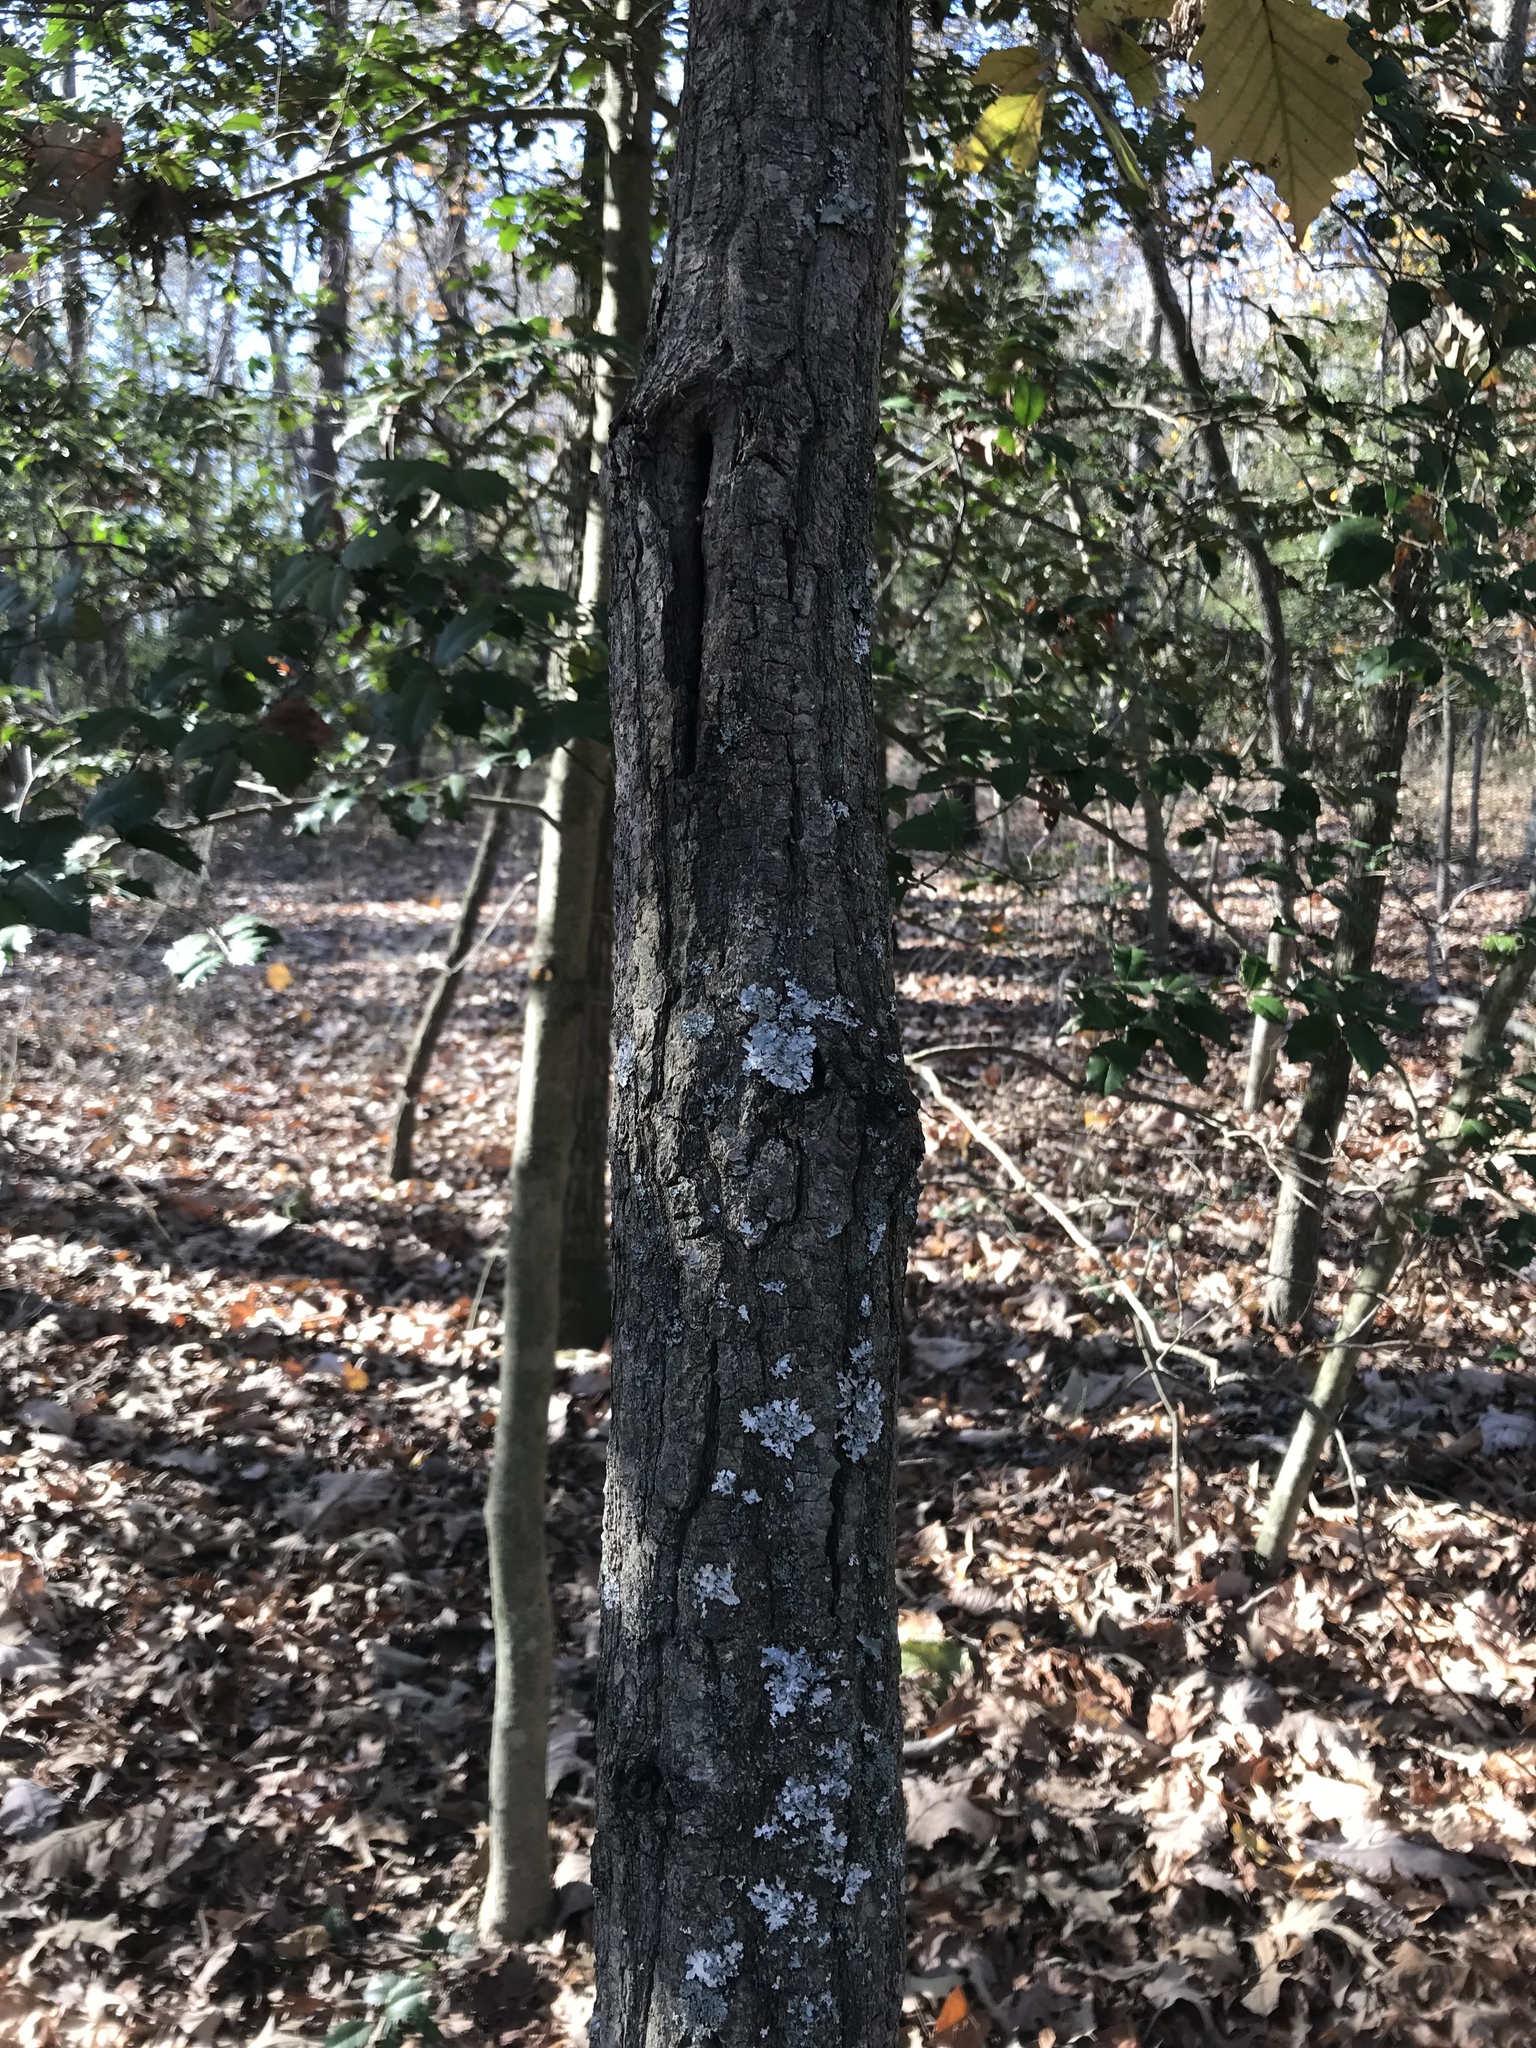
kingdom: Plantae
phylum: Tracheophyta
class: Magnoliopsida
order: Fagales
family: Fagaceae
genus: Quercus
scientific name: Quercus montana
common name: Chestnut oak
